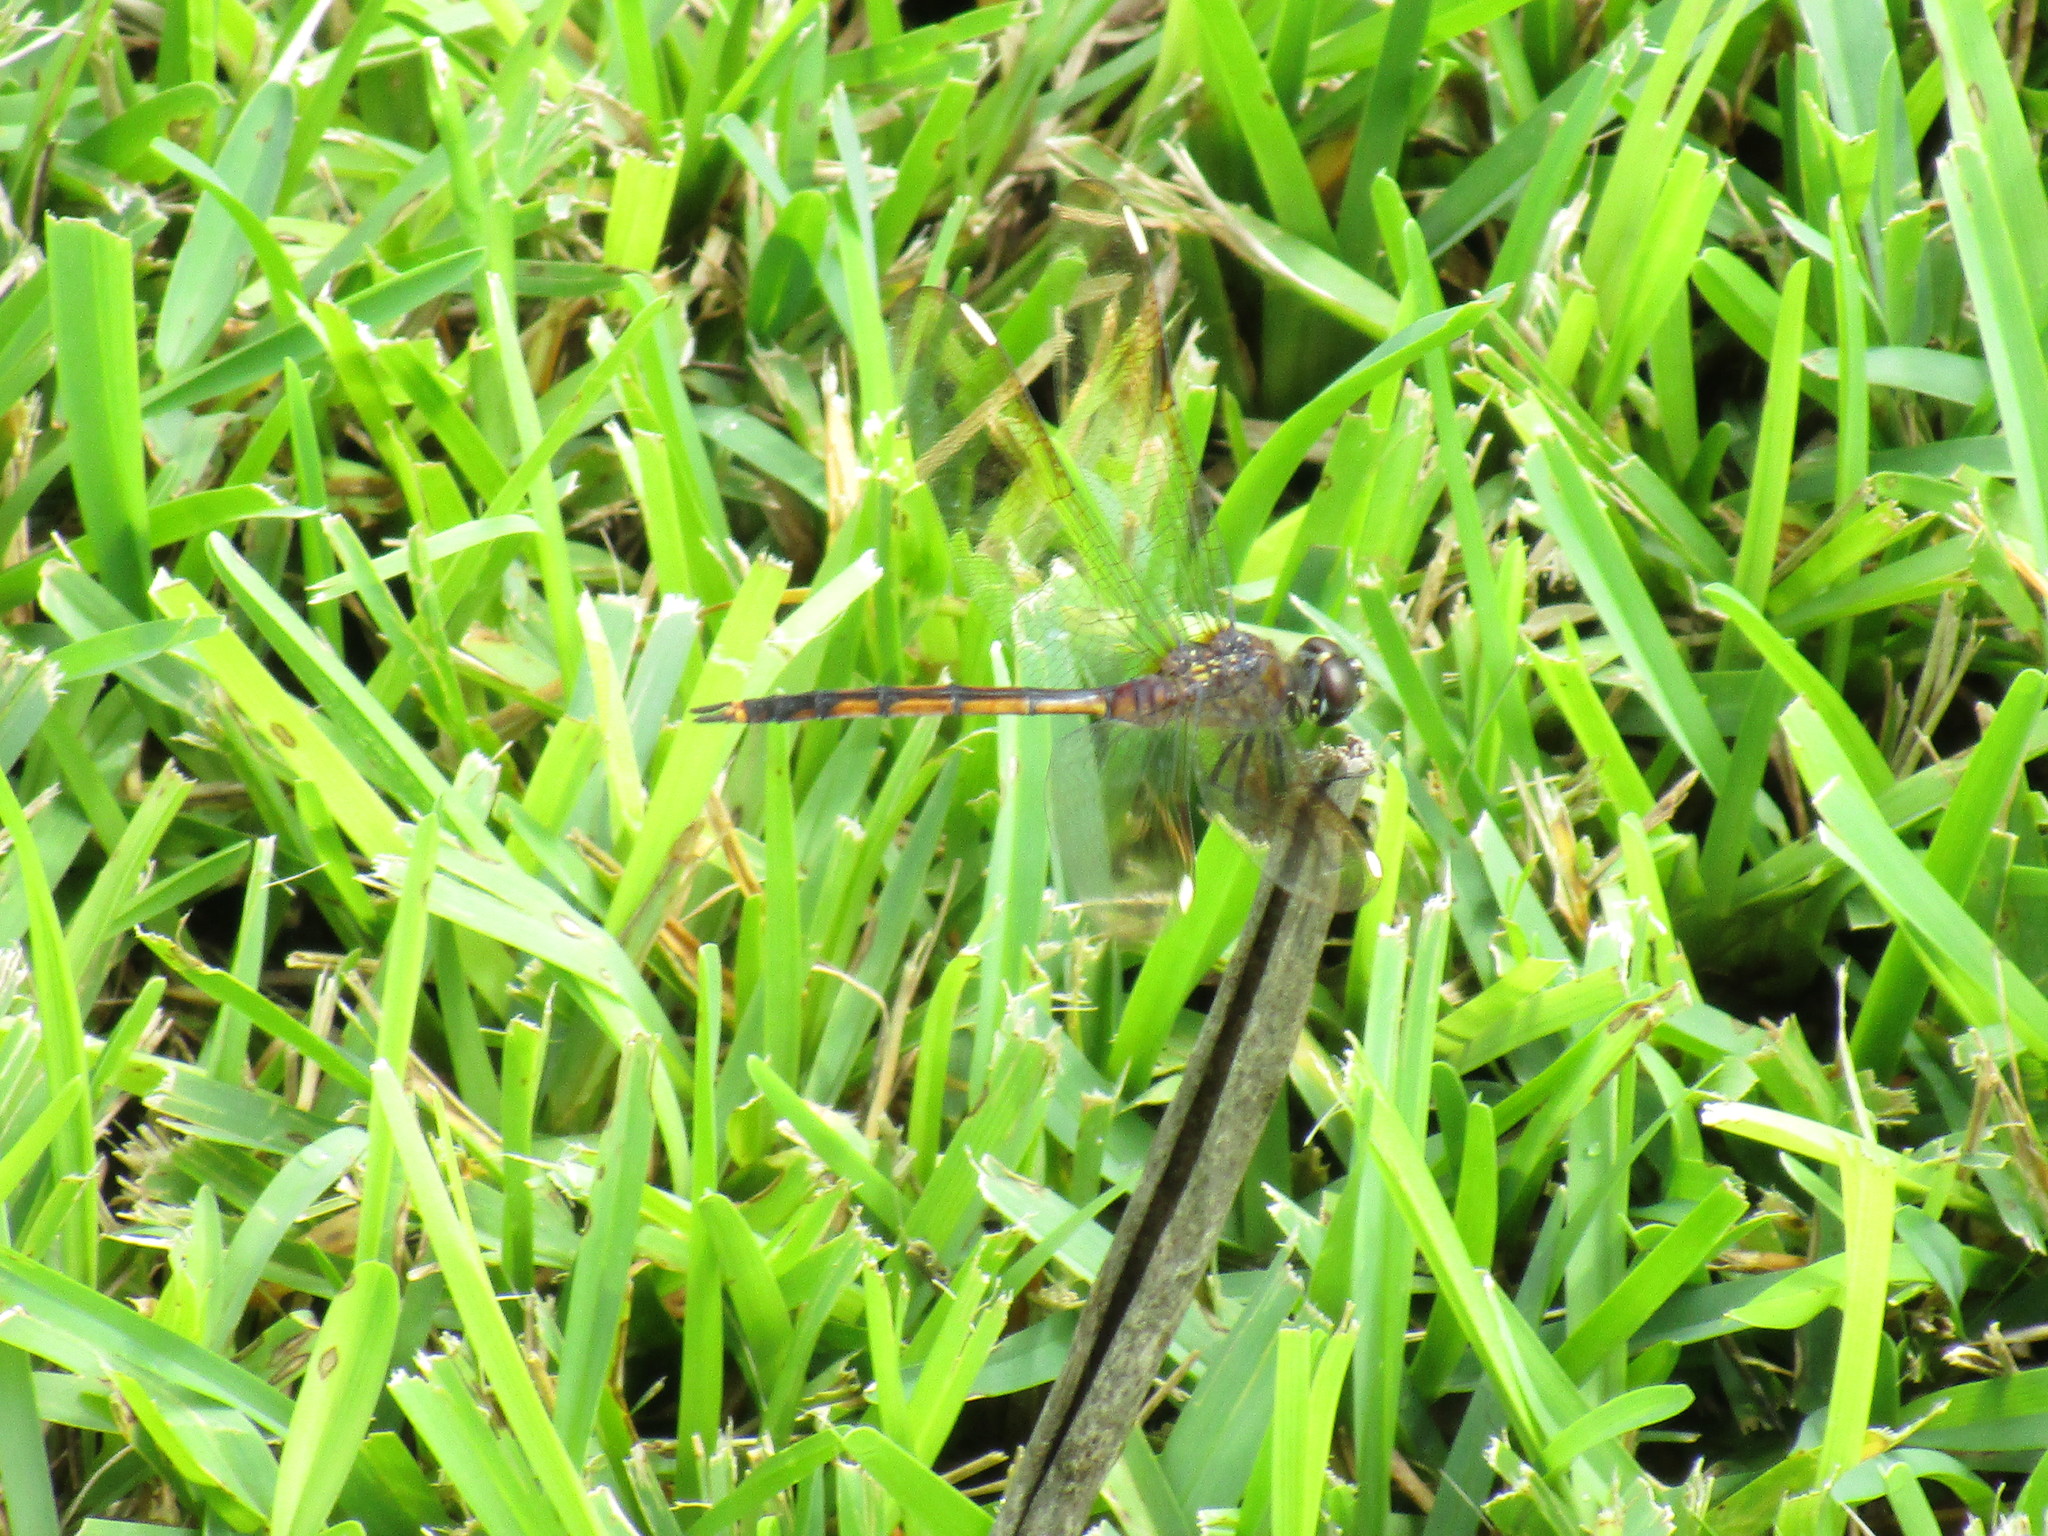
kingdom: Animalia
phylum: Arthropoda
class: Insecta
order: Odonata
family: Libellulidae
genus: Brachymesia
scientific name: Brachymesia gravida
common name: Four-spotted pennant
